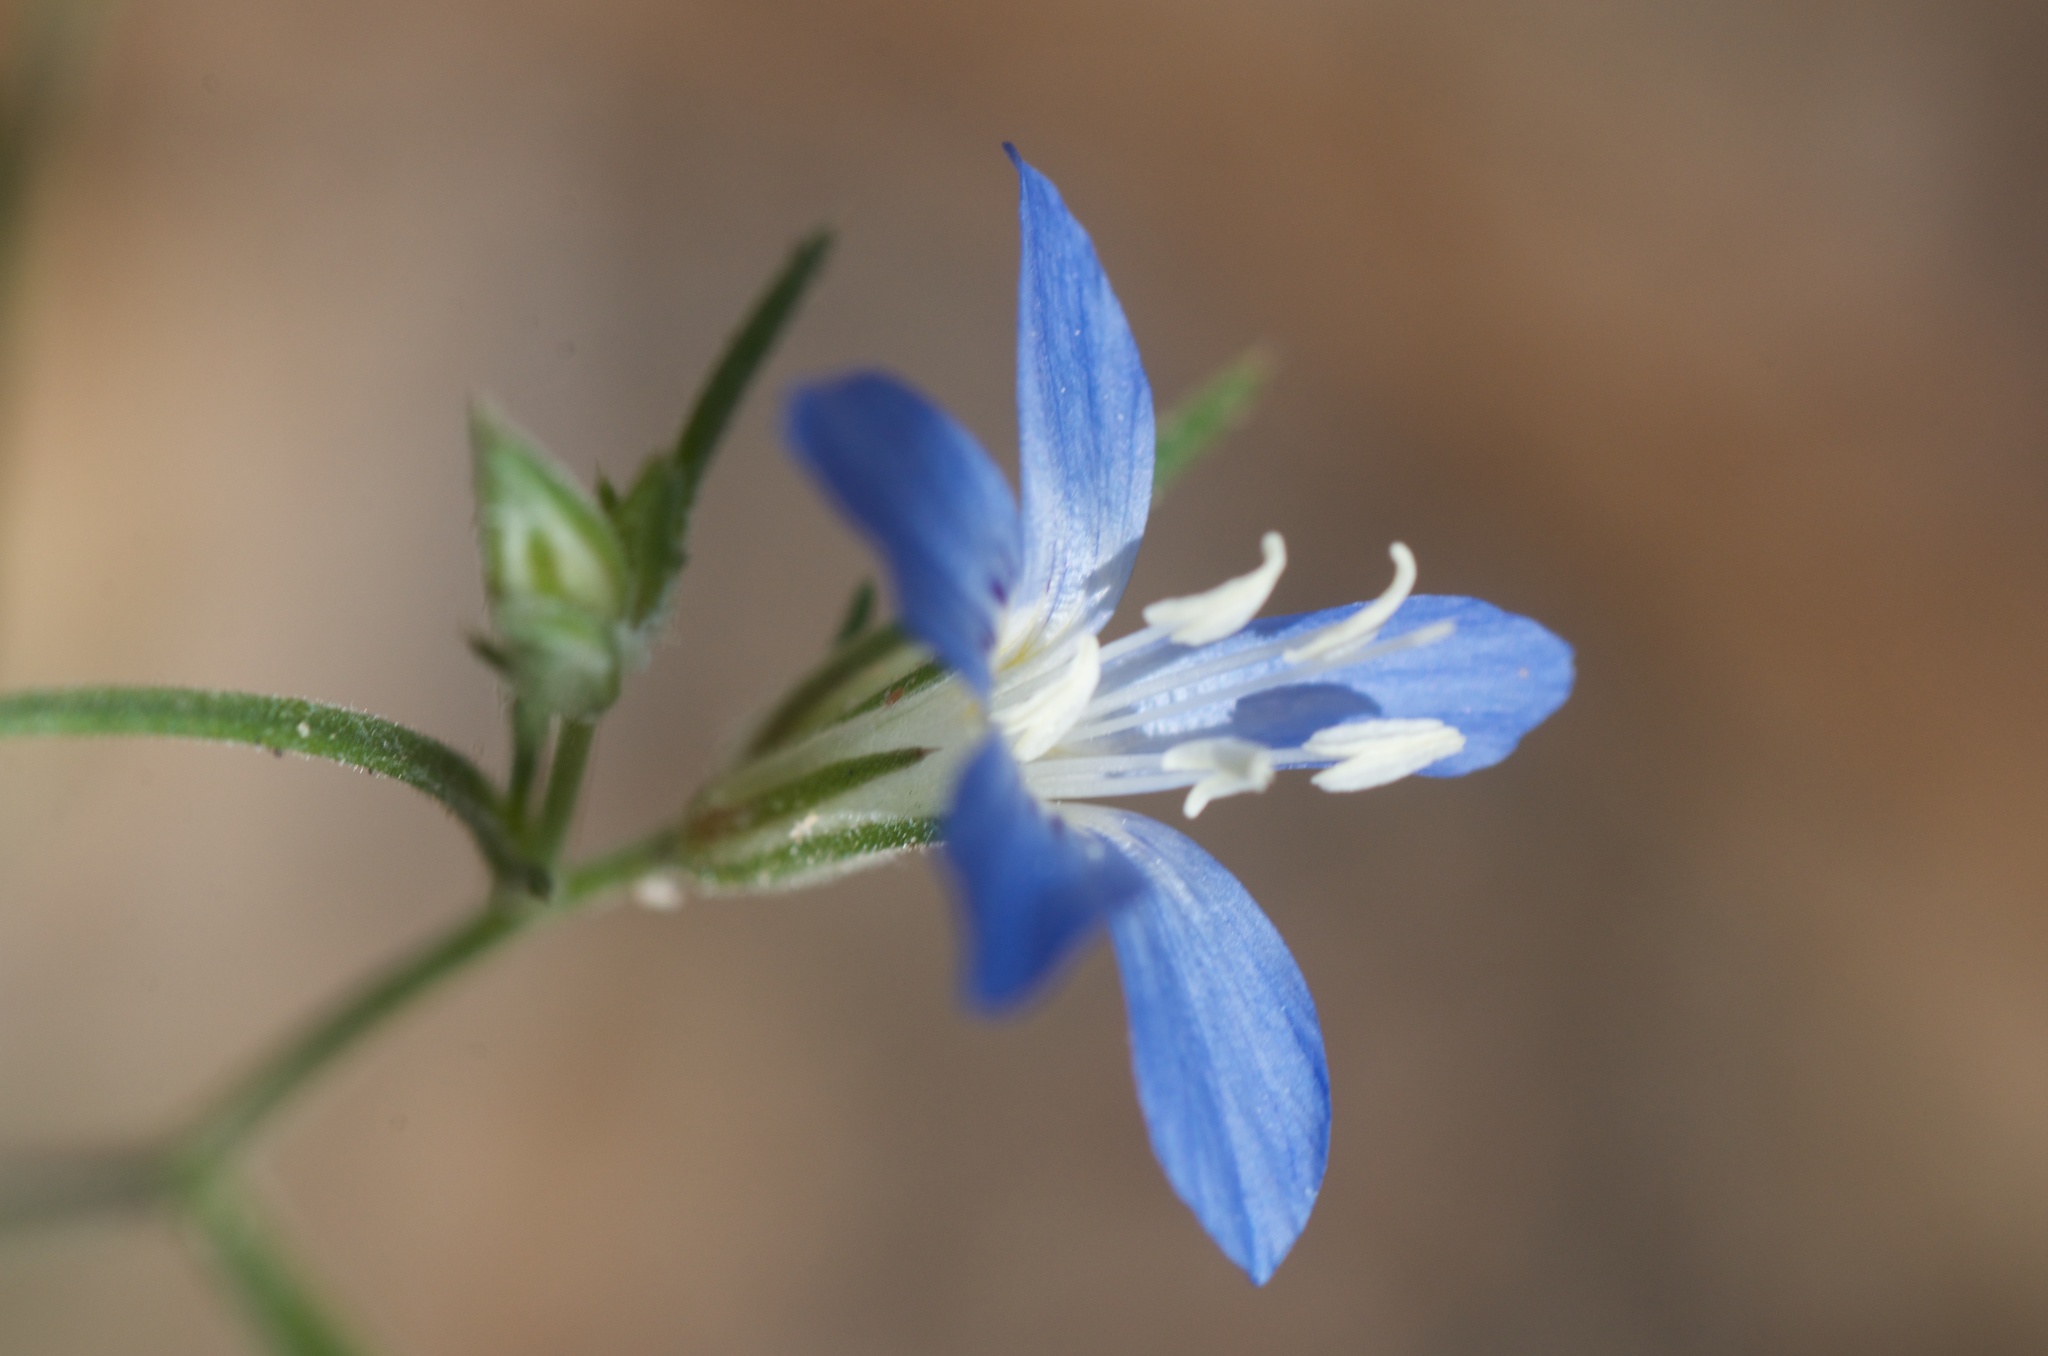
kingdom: Plantae
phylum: Tracheophyta
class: Magnoliopsida
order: Ericales
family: Polemoniaceae
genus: Eriastrum
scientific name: Eriastrum sapphirinum
